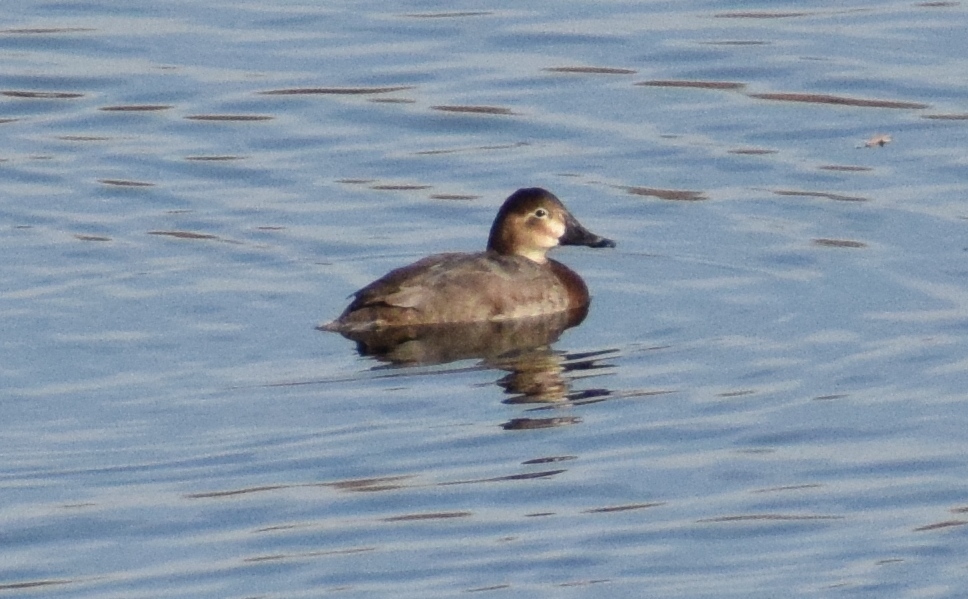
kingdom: Animalia
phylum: Chordata
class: Aves
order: Anseriformes
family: Anatidae
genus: Aythya
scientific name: Aythya ferina
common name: Common pochard
